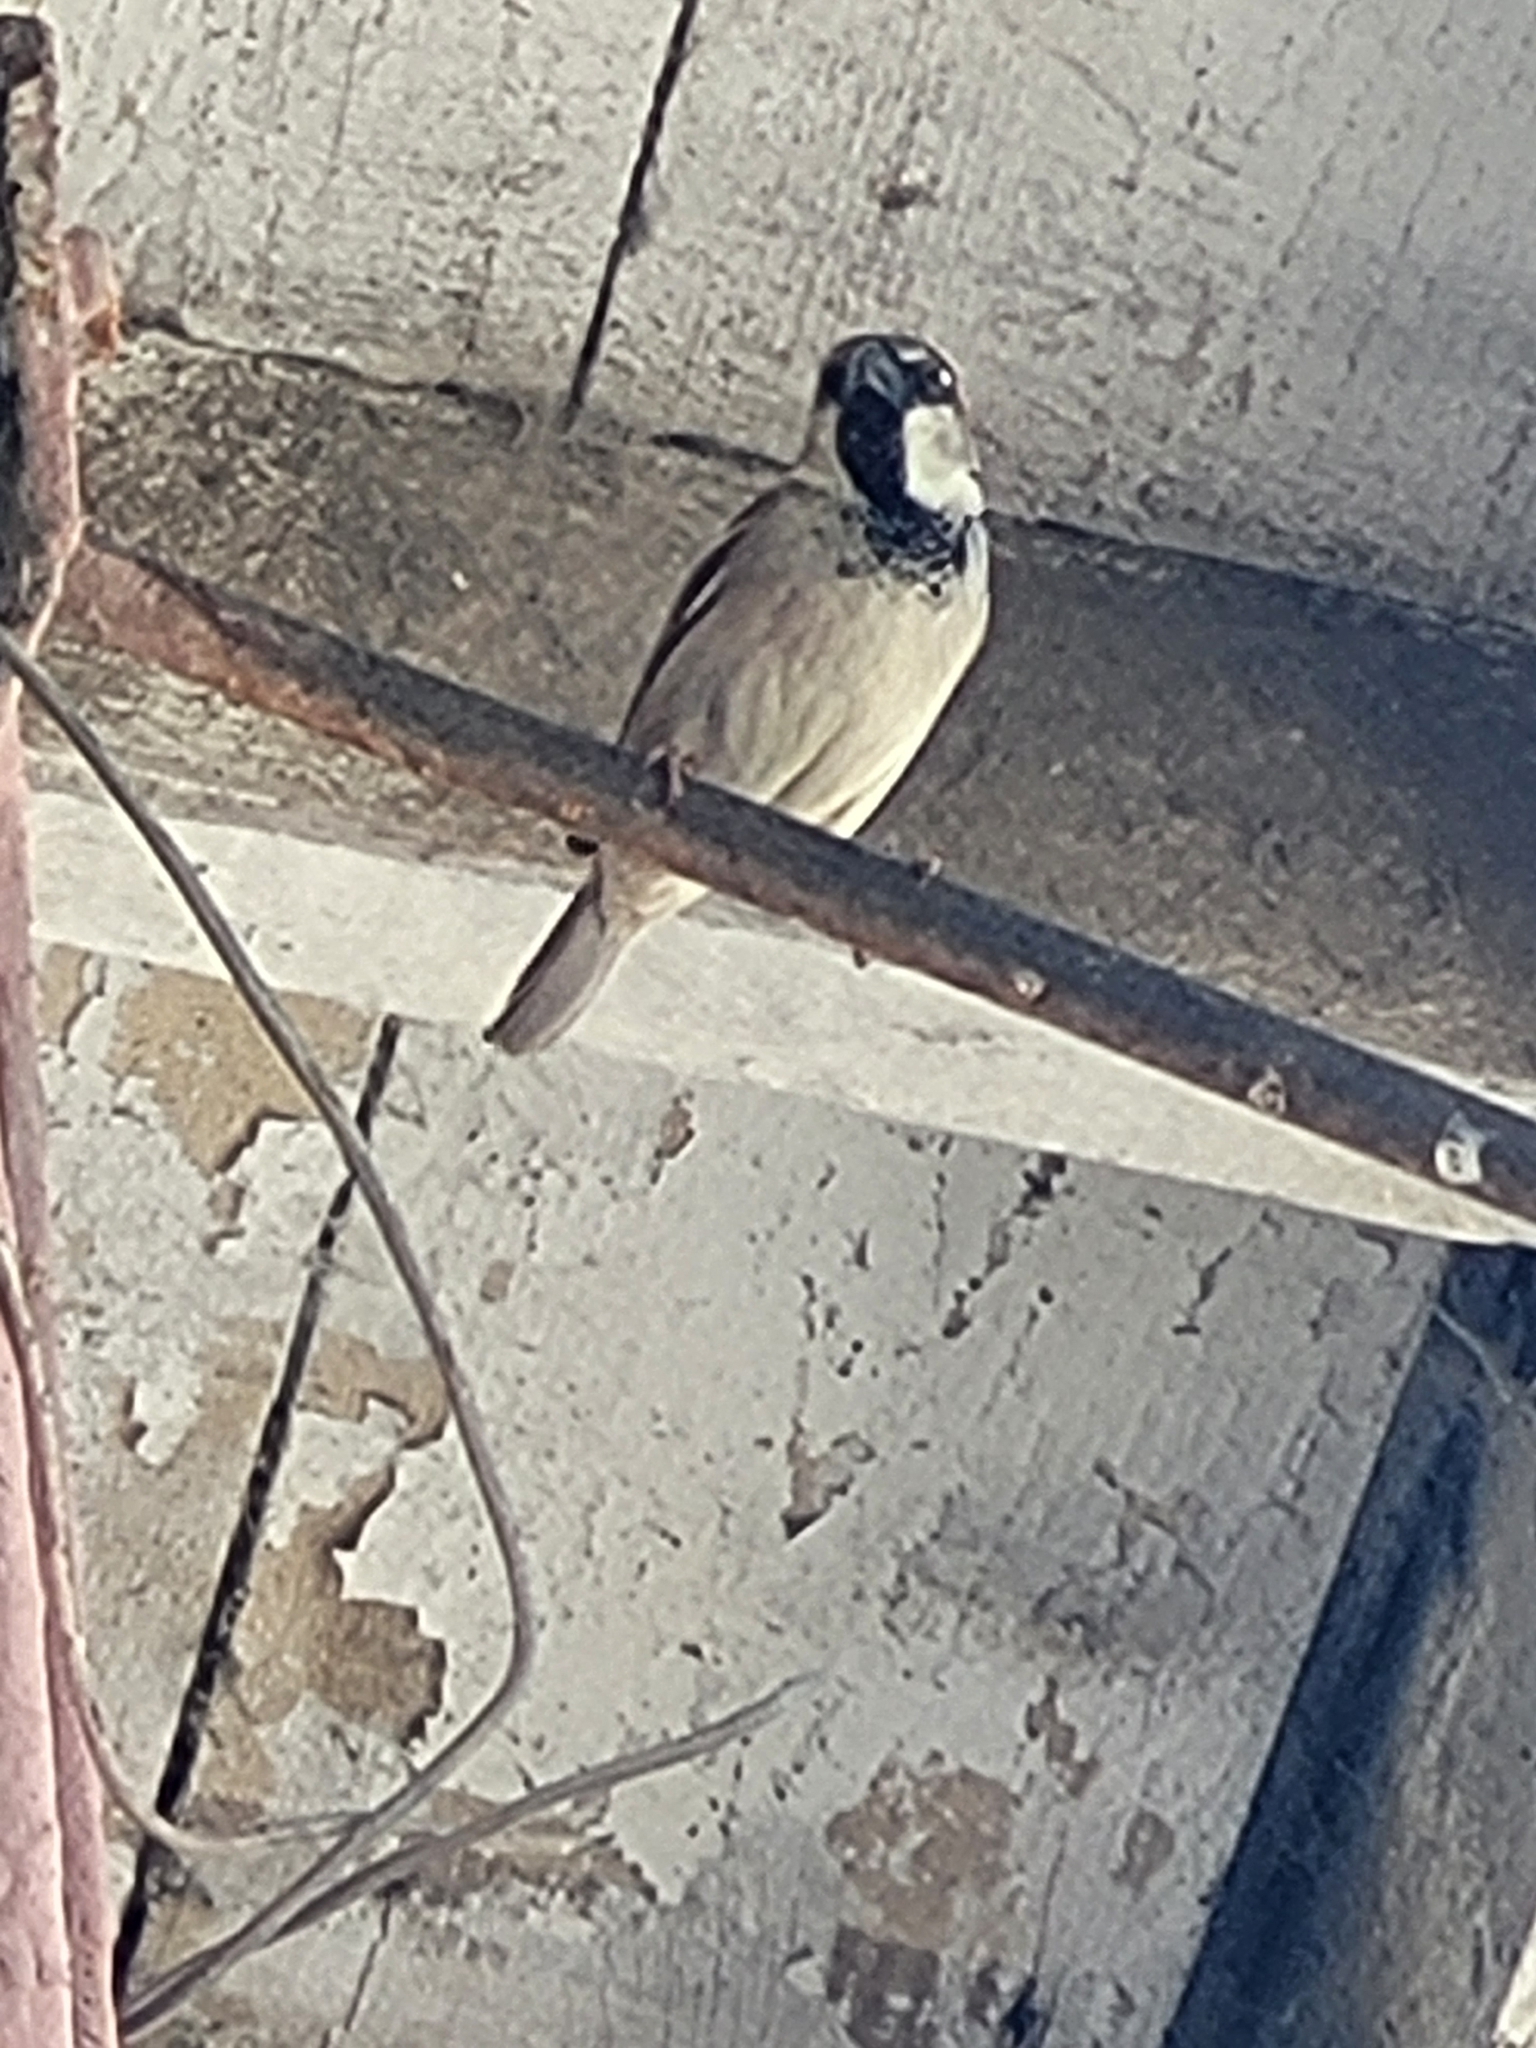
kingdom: Animalia
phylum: Chordata
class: Aves
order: Passeriformes
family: Passeridae
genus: Passer
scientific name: Passer domesticus
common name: House sparrow
